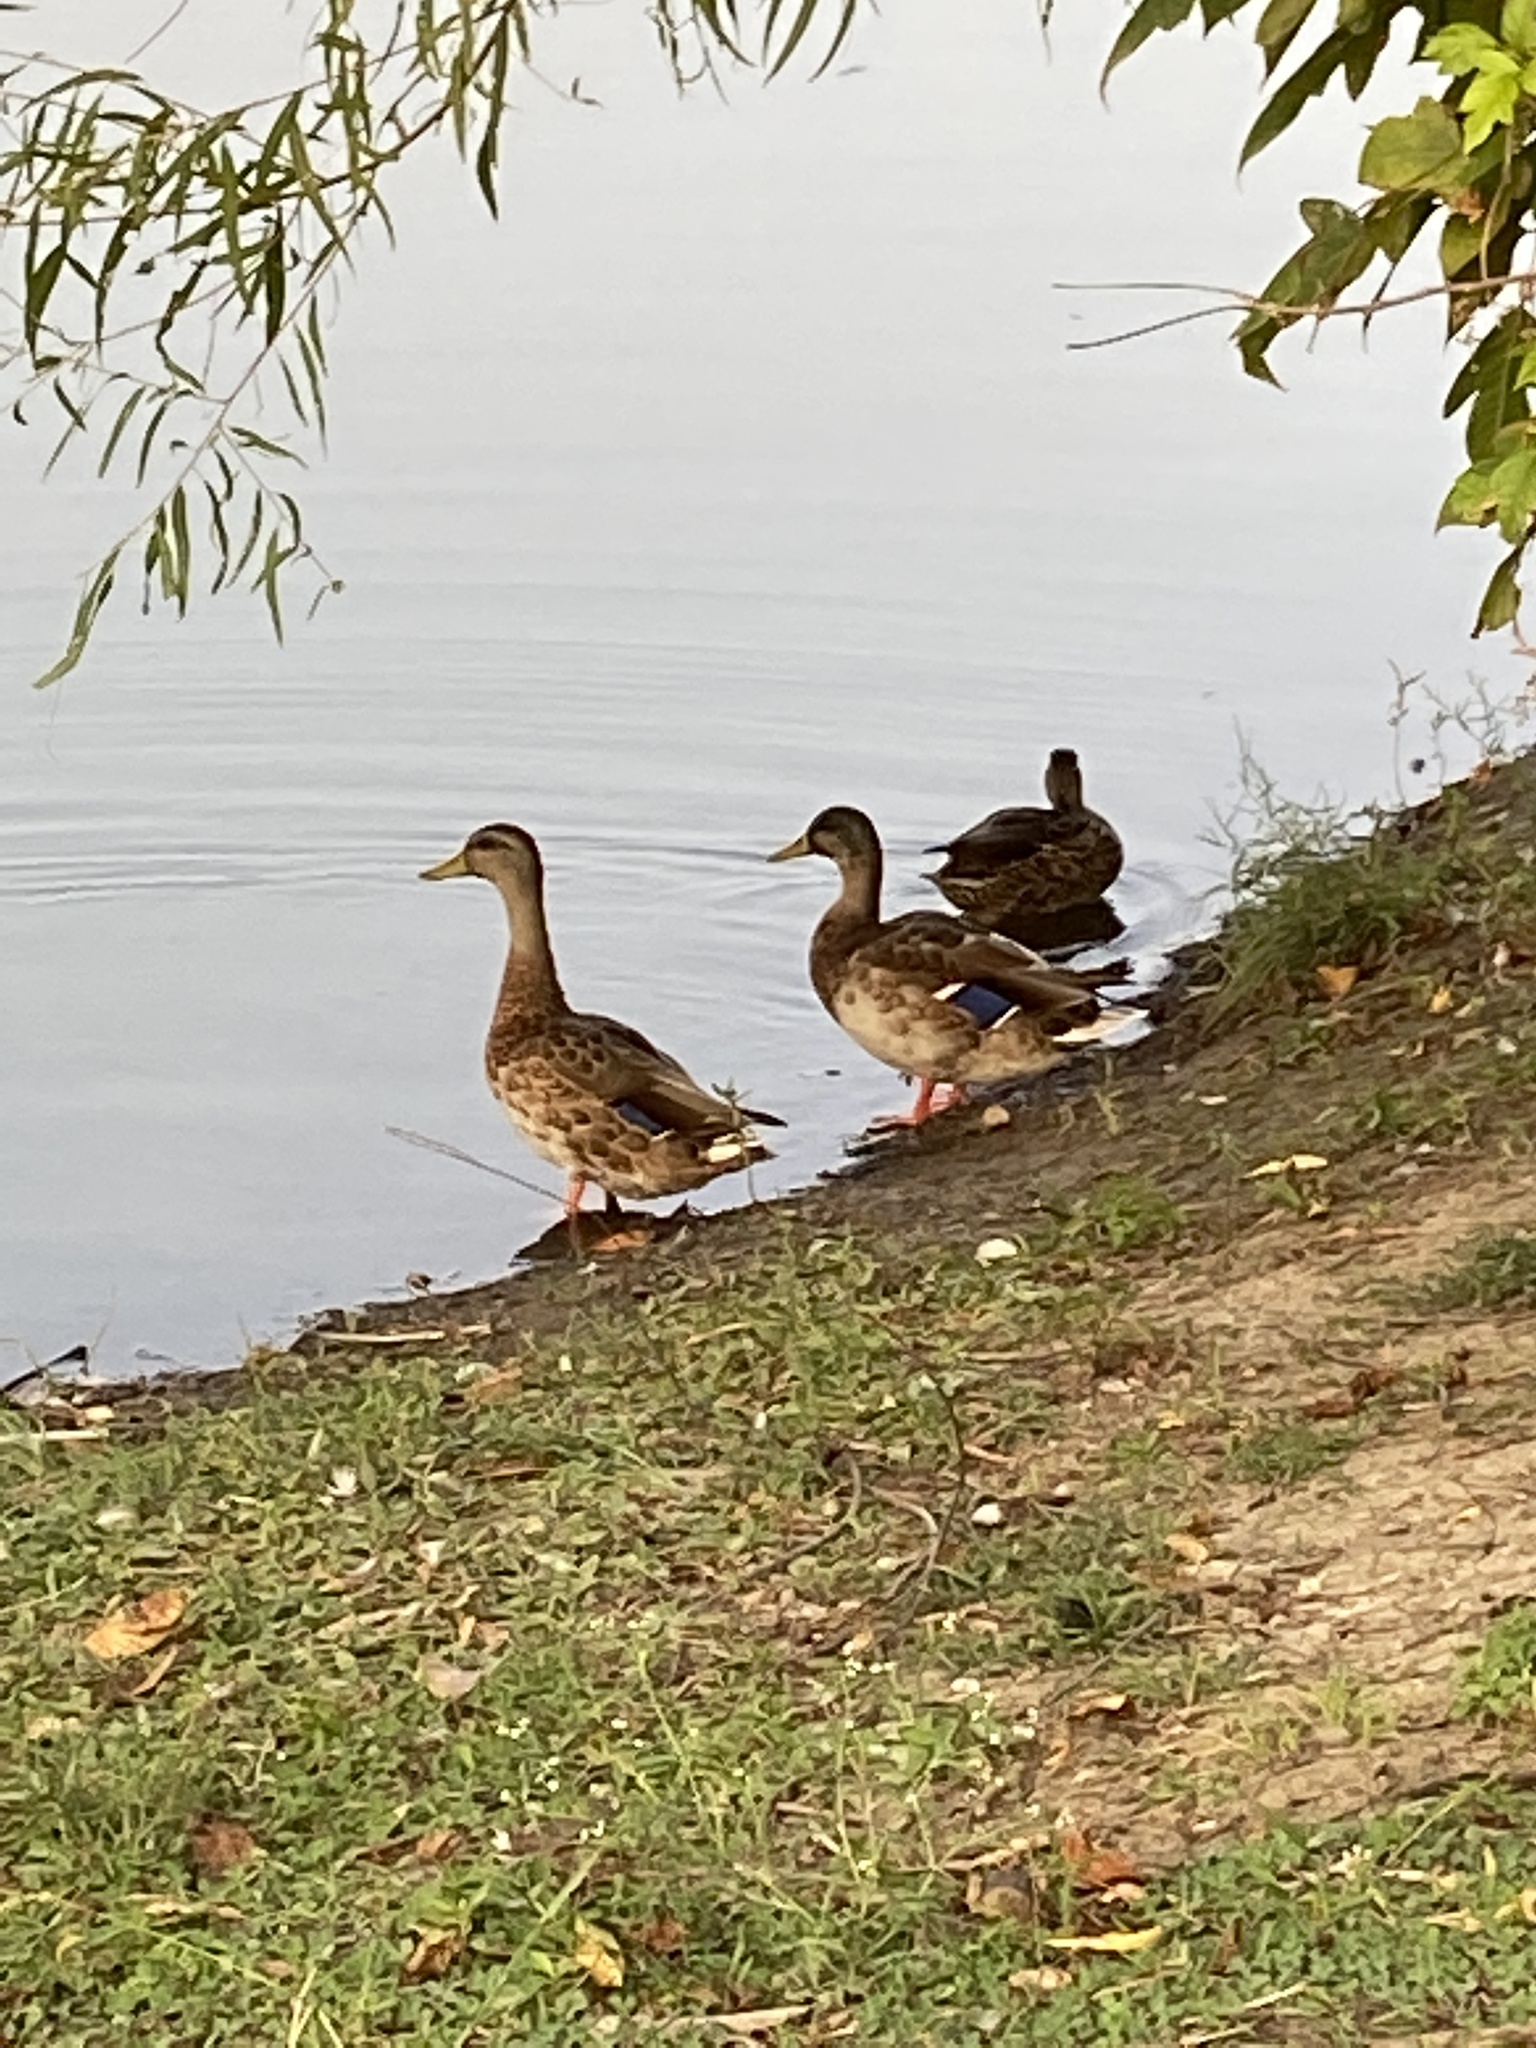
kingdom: Animalia
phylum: Chordata
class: Aves
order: Anseriformes
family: Anatidae
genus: Anas
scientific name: Anas platyrhynchos
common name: Mallard
